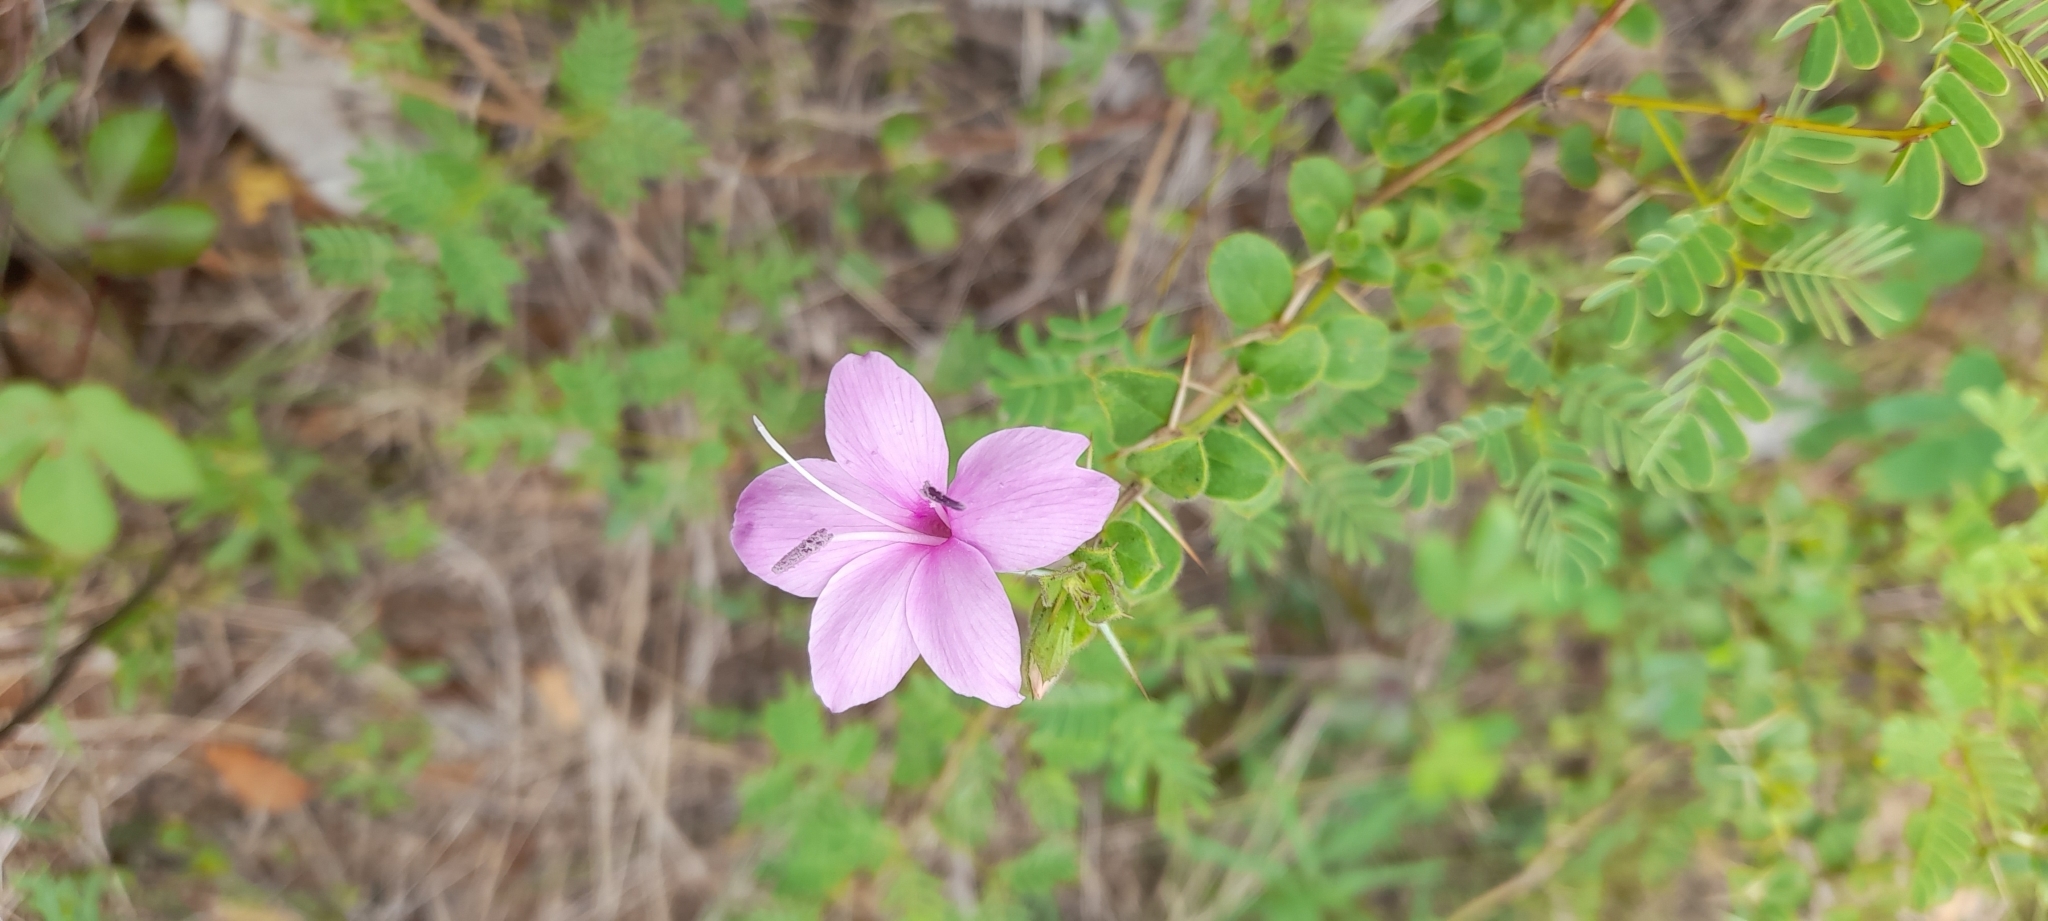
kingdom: Plantae
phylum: Tracheophyta
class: Magnoliopsida
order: Lamiales
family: Acanthaceae
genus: Barleria
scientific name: Barleria mysorensis
